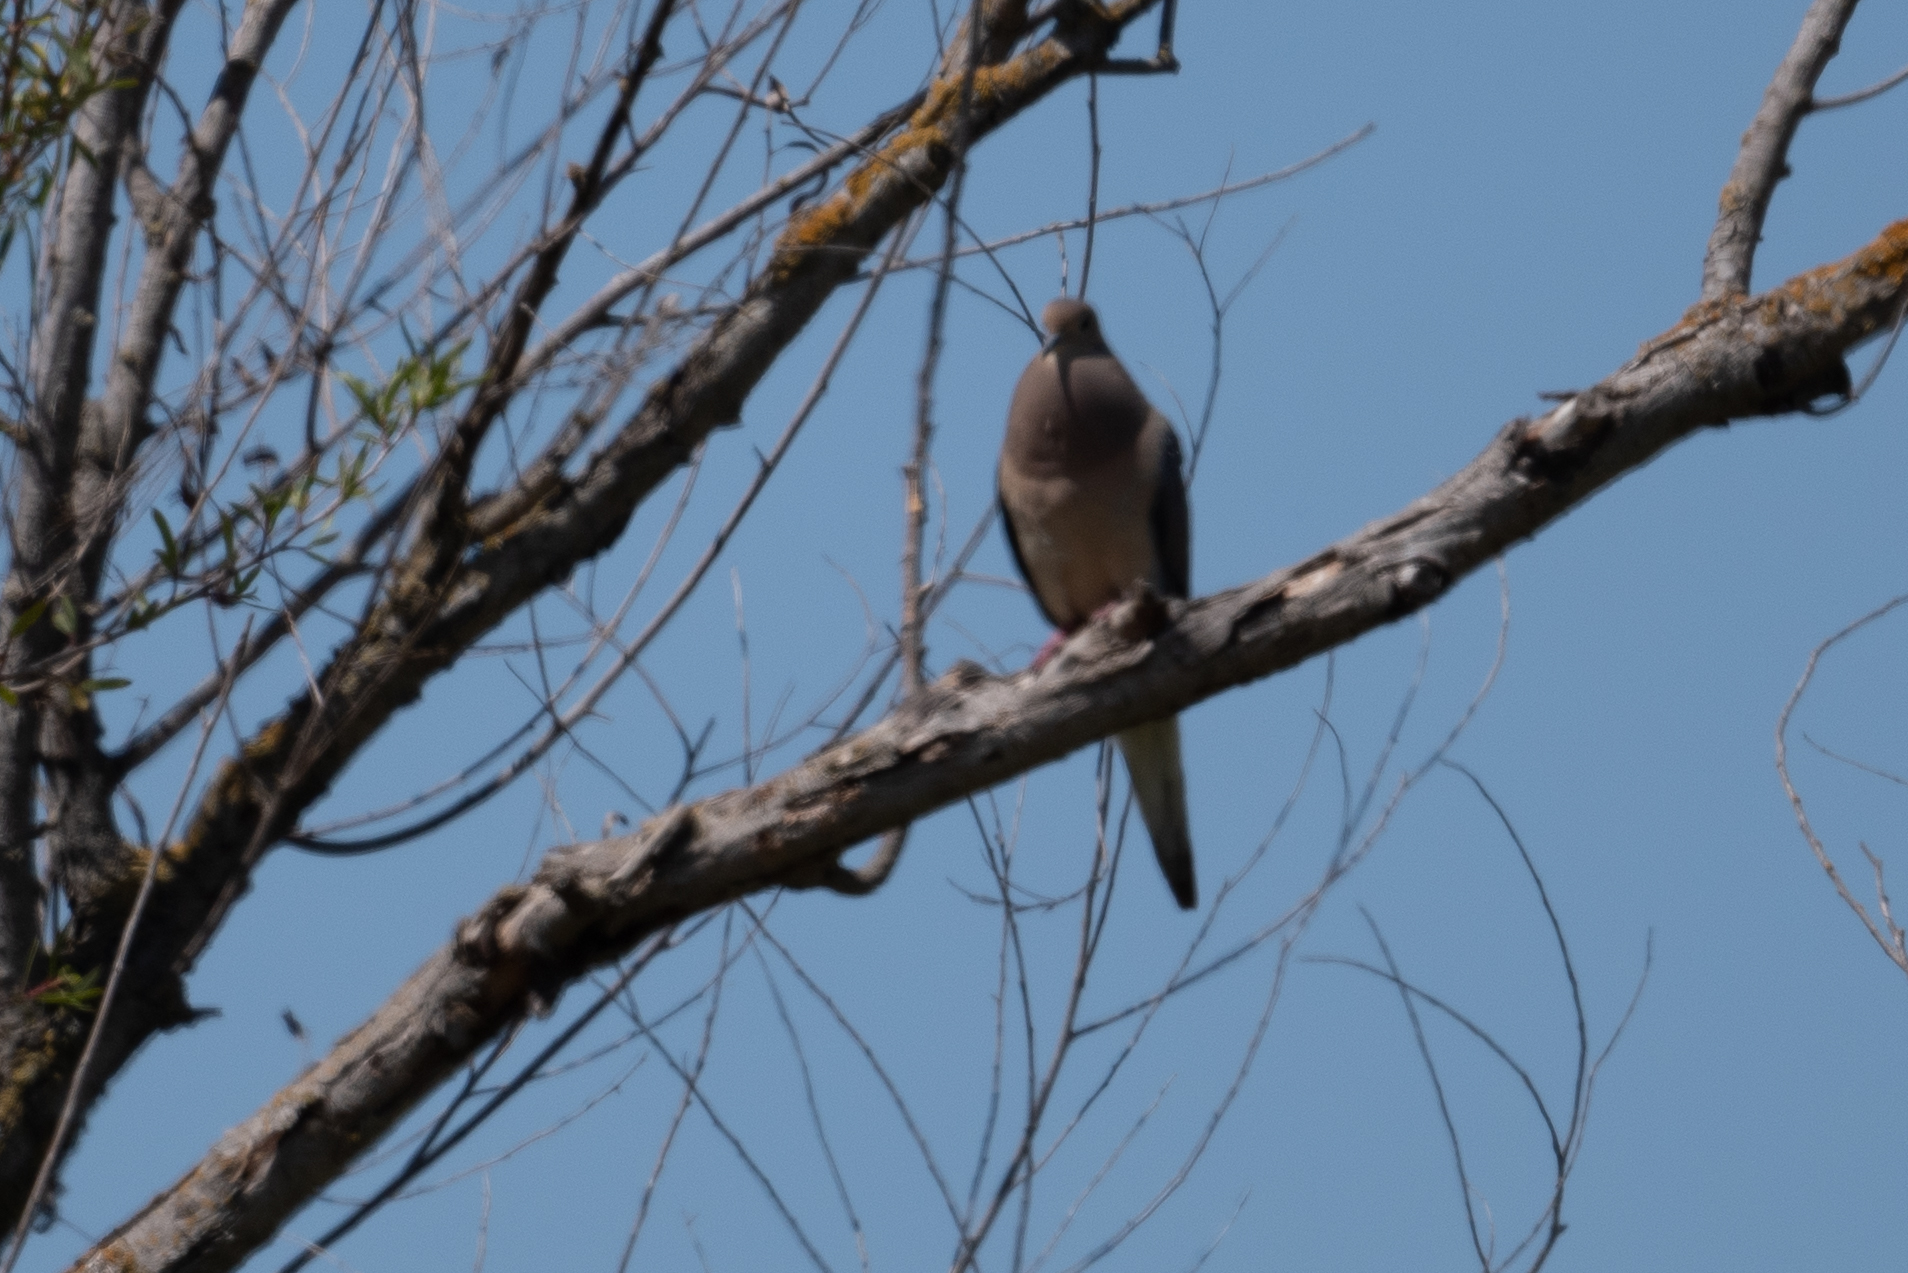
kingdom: Animalia
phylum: Chordata
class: Aves
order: Columbiformes
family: Columbidae
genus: Zenaida
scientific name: Zenaida macroura
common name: Mourning dove
